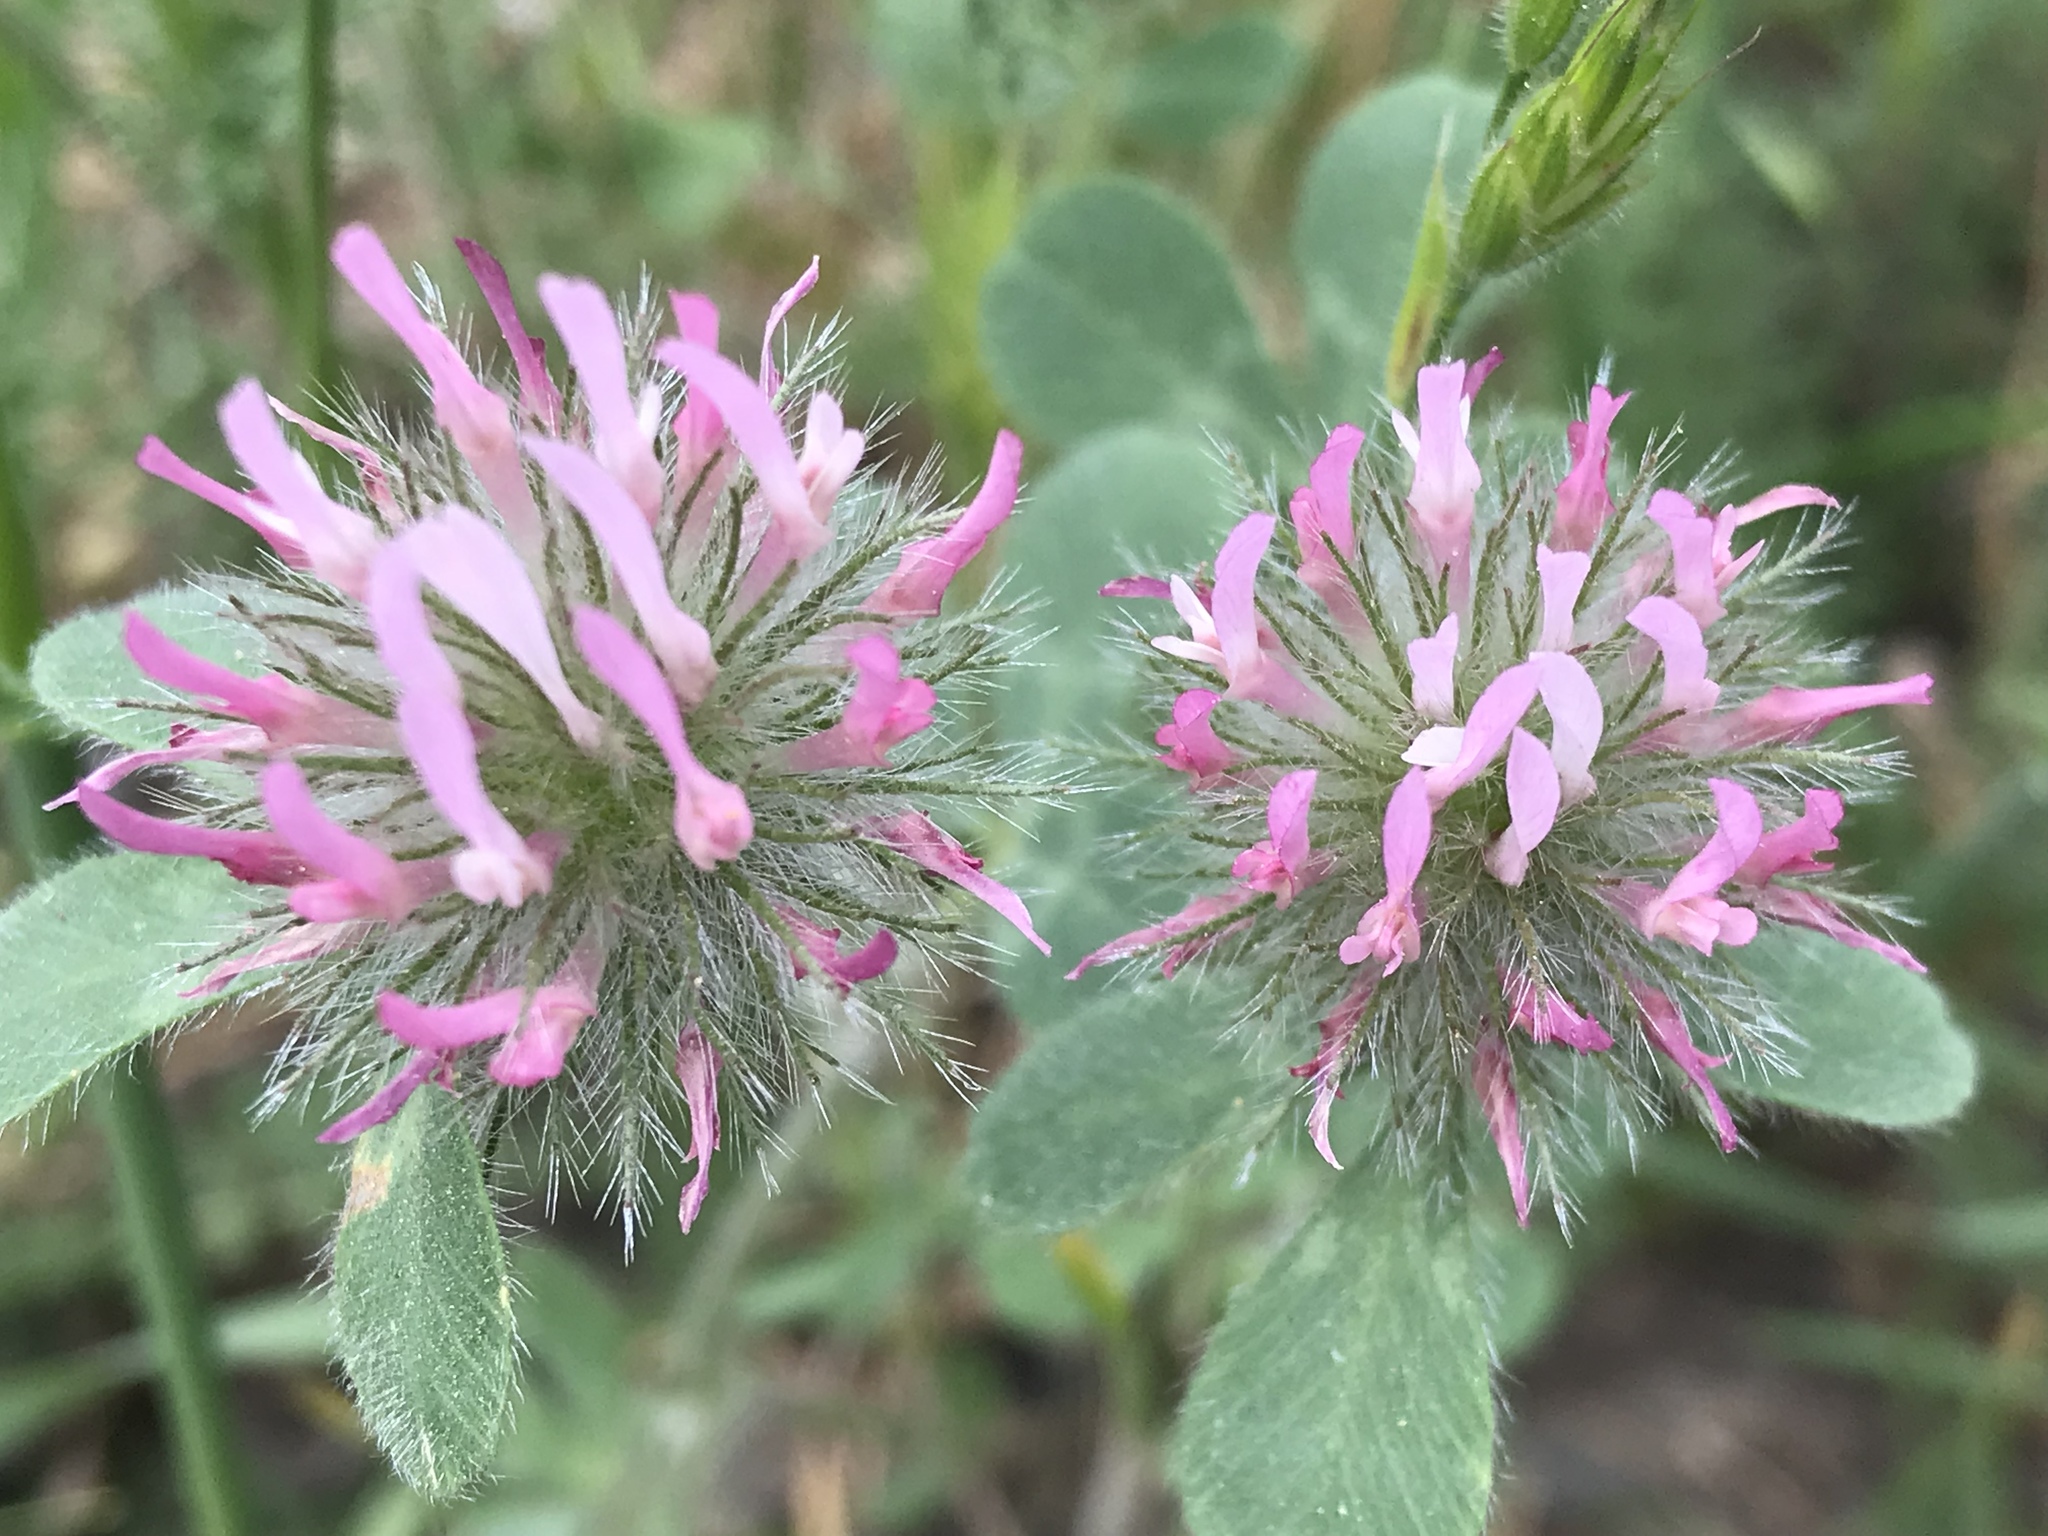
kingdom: Plantae
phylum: Tracheophyta
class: Magnoliopsida
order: Fabales
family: Fabaceae
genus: Trifolium
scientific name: Trifolium hirtum
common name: Rose clover
